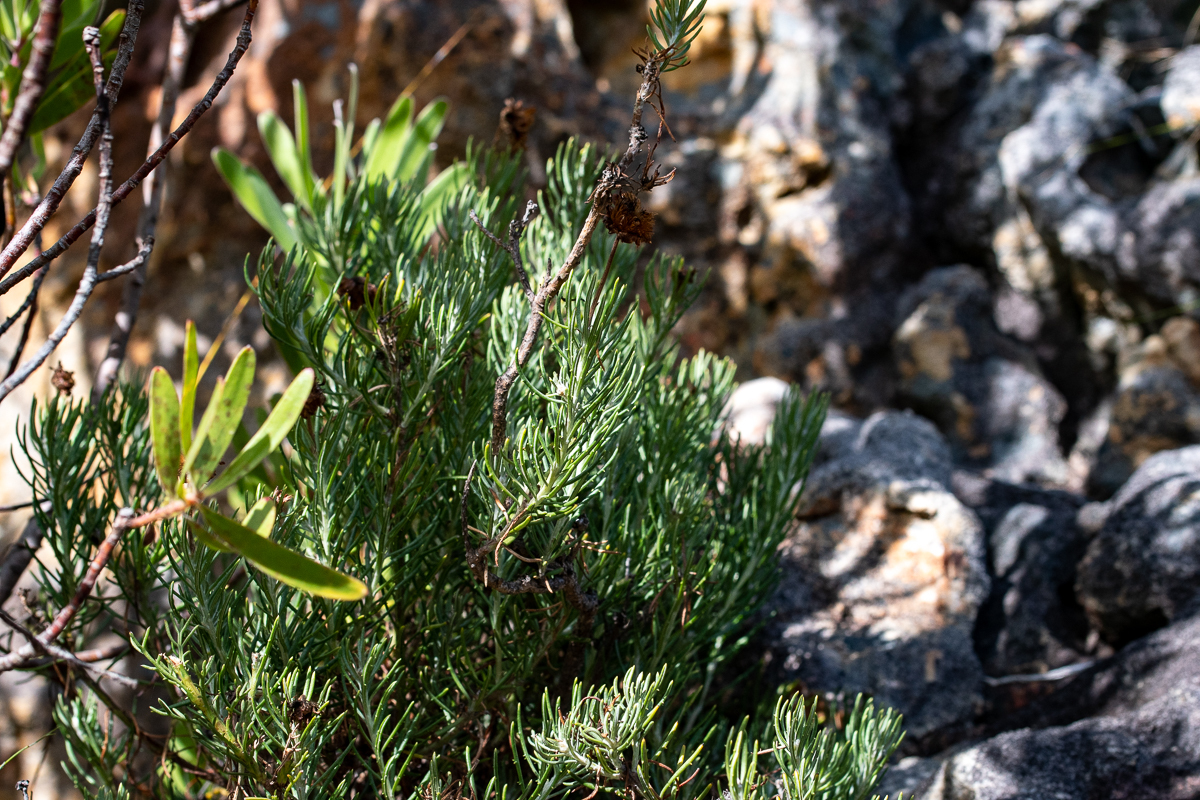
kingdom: Plantae
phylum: Tracheophyta
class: Magnoliopsida
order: Asterales
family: Asteraceae
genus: Heterolepis
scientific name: Heterolepis aliena
